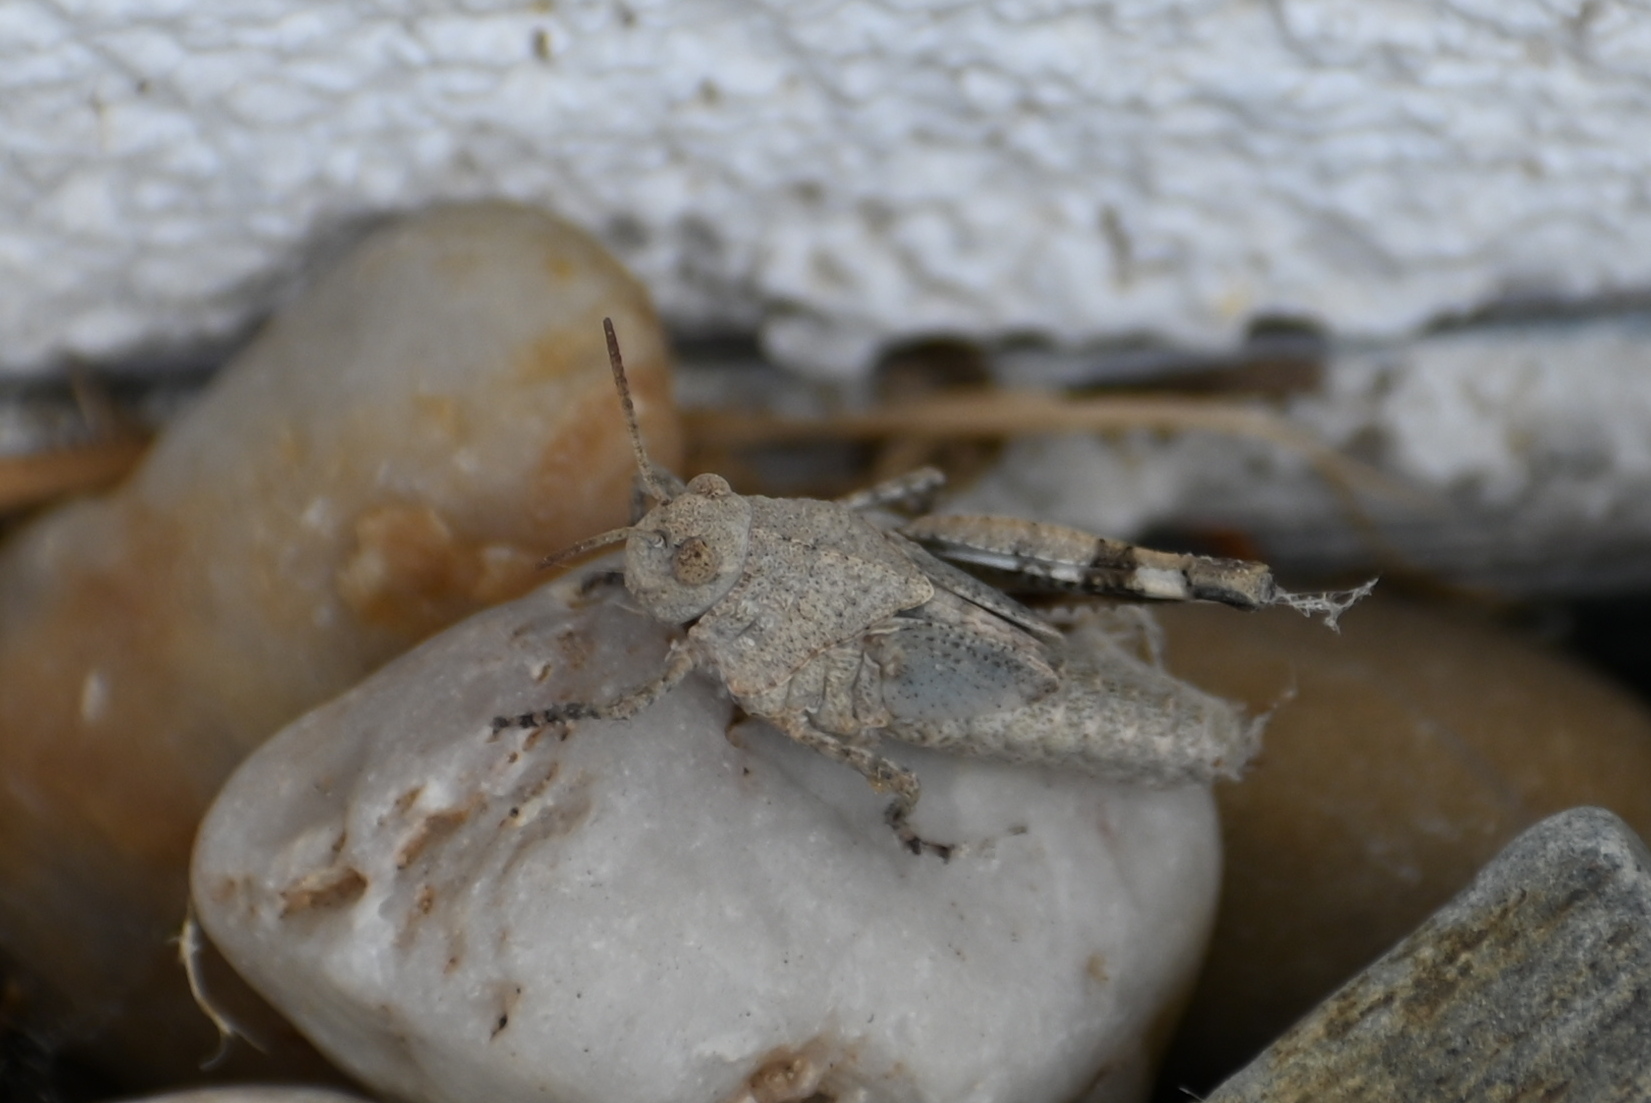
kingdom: Animalia
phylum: Arthropoda
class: Insecta
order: Orthoptera
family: Acrididae
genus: Oedipoda
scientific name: Oedipoda caerulescens
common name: Blue-winged grasshopper
